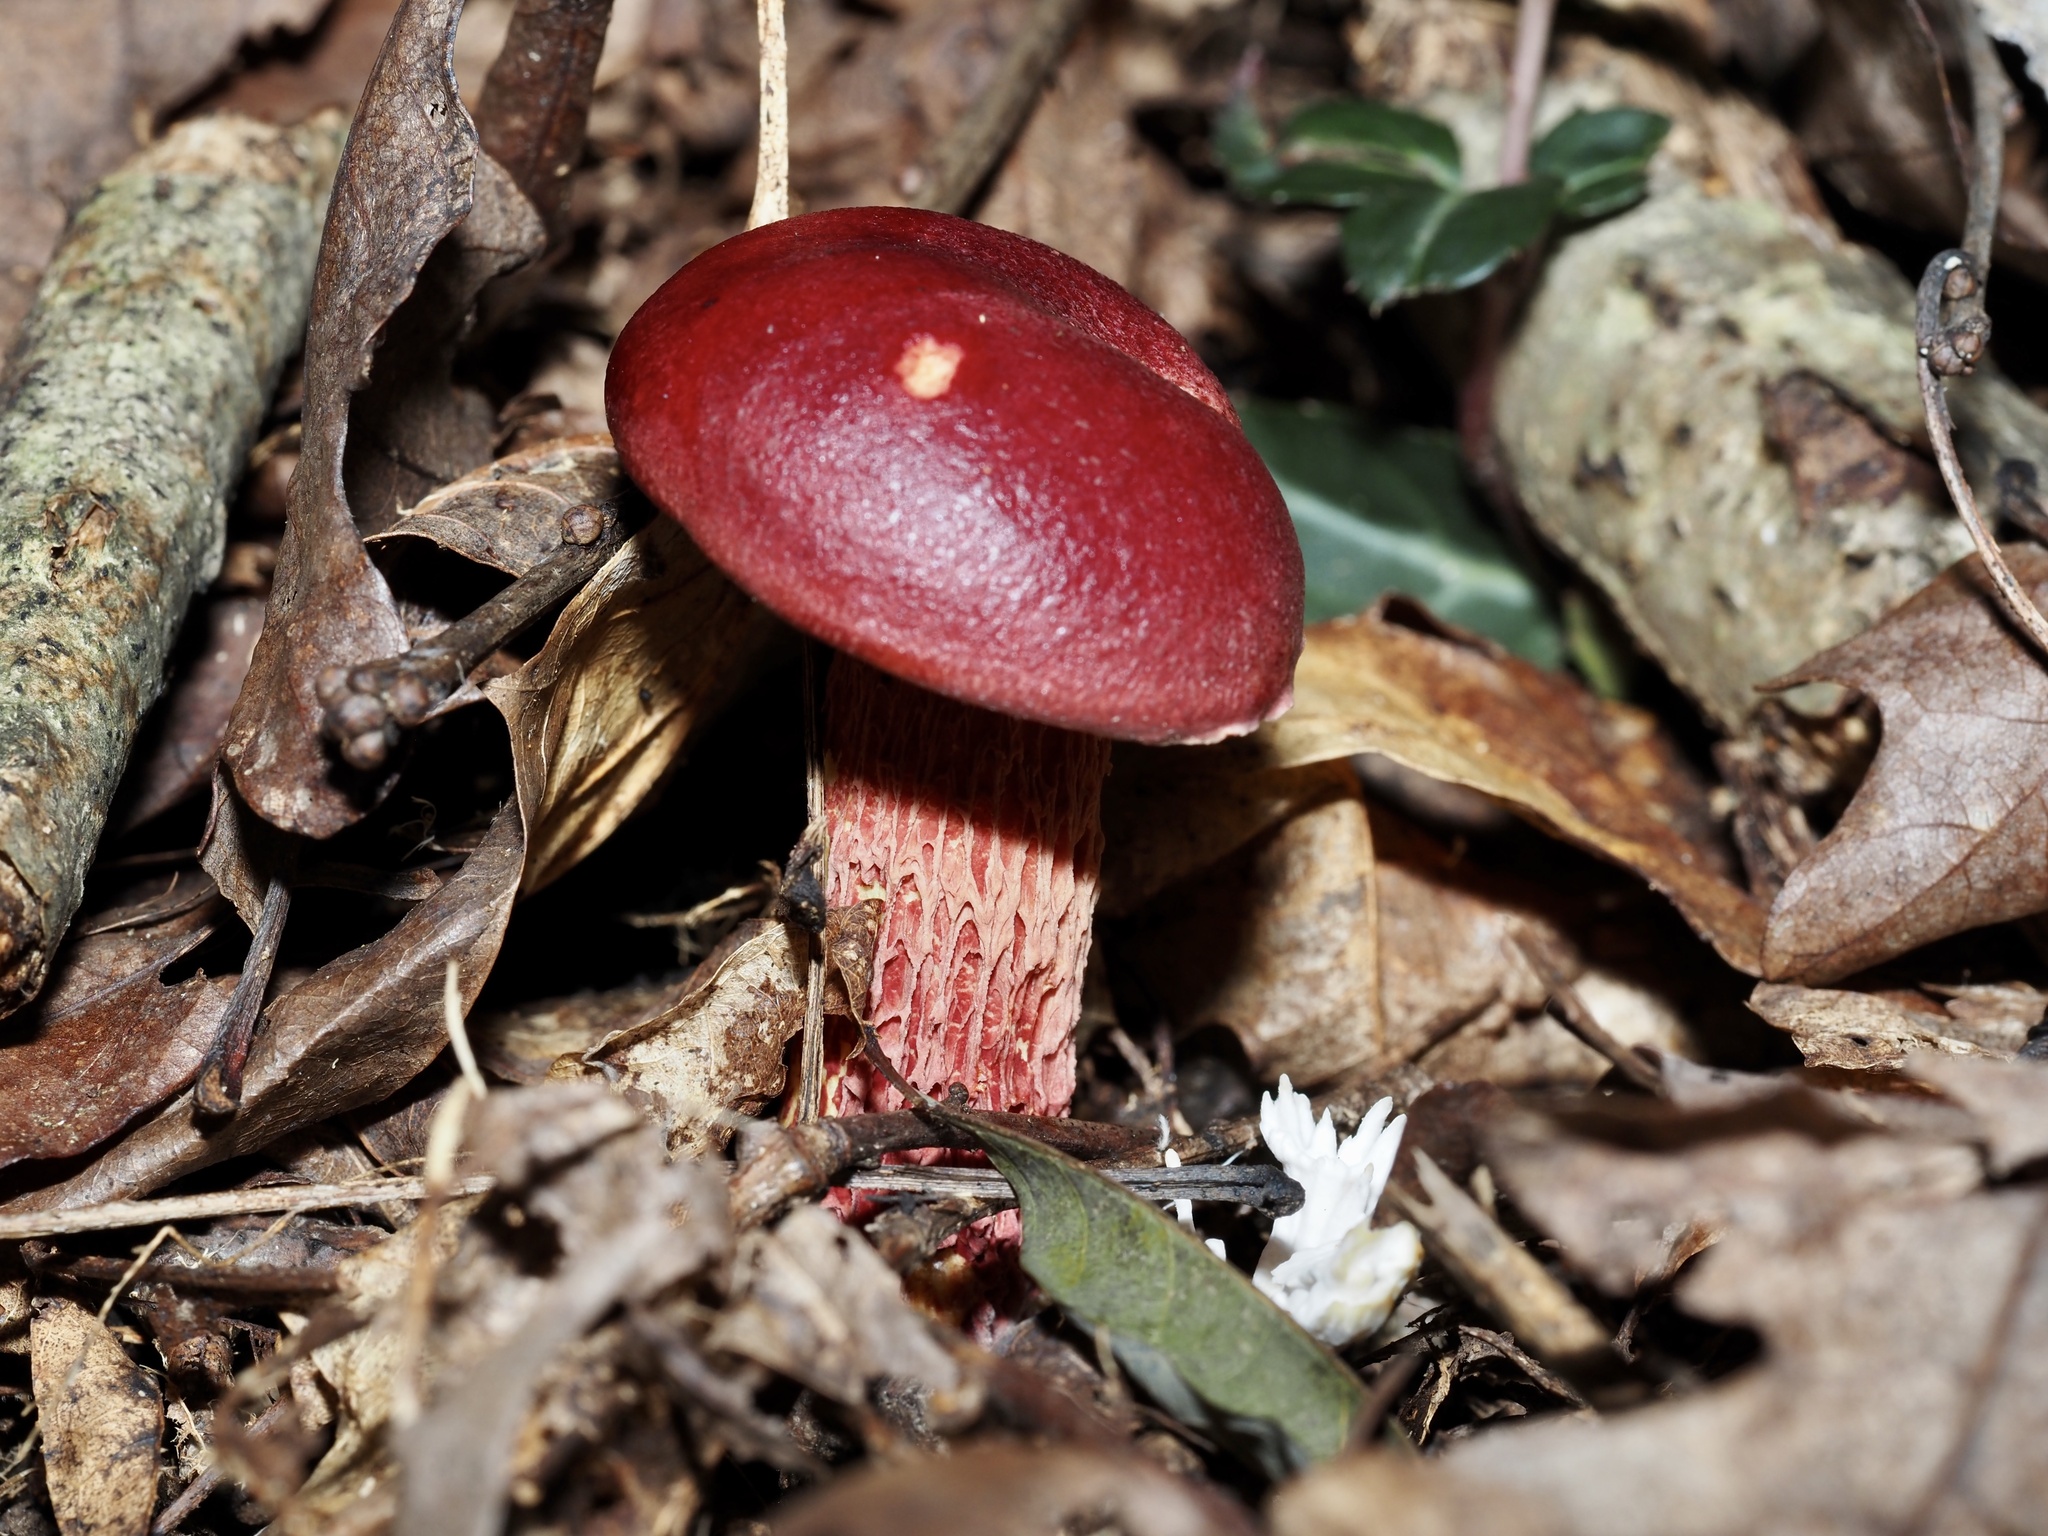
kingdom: Fungi
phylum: Basidiomycota
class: Agaricomycetes
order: Boletales
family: Boletaceae
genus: Butyriboletus
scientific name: Butyriboletus frostii
